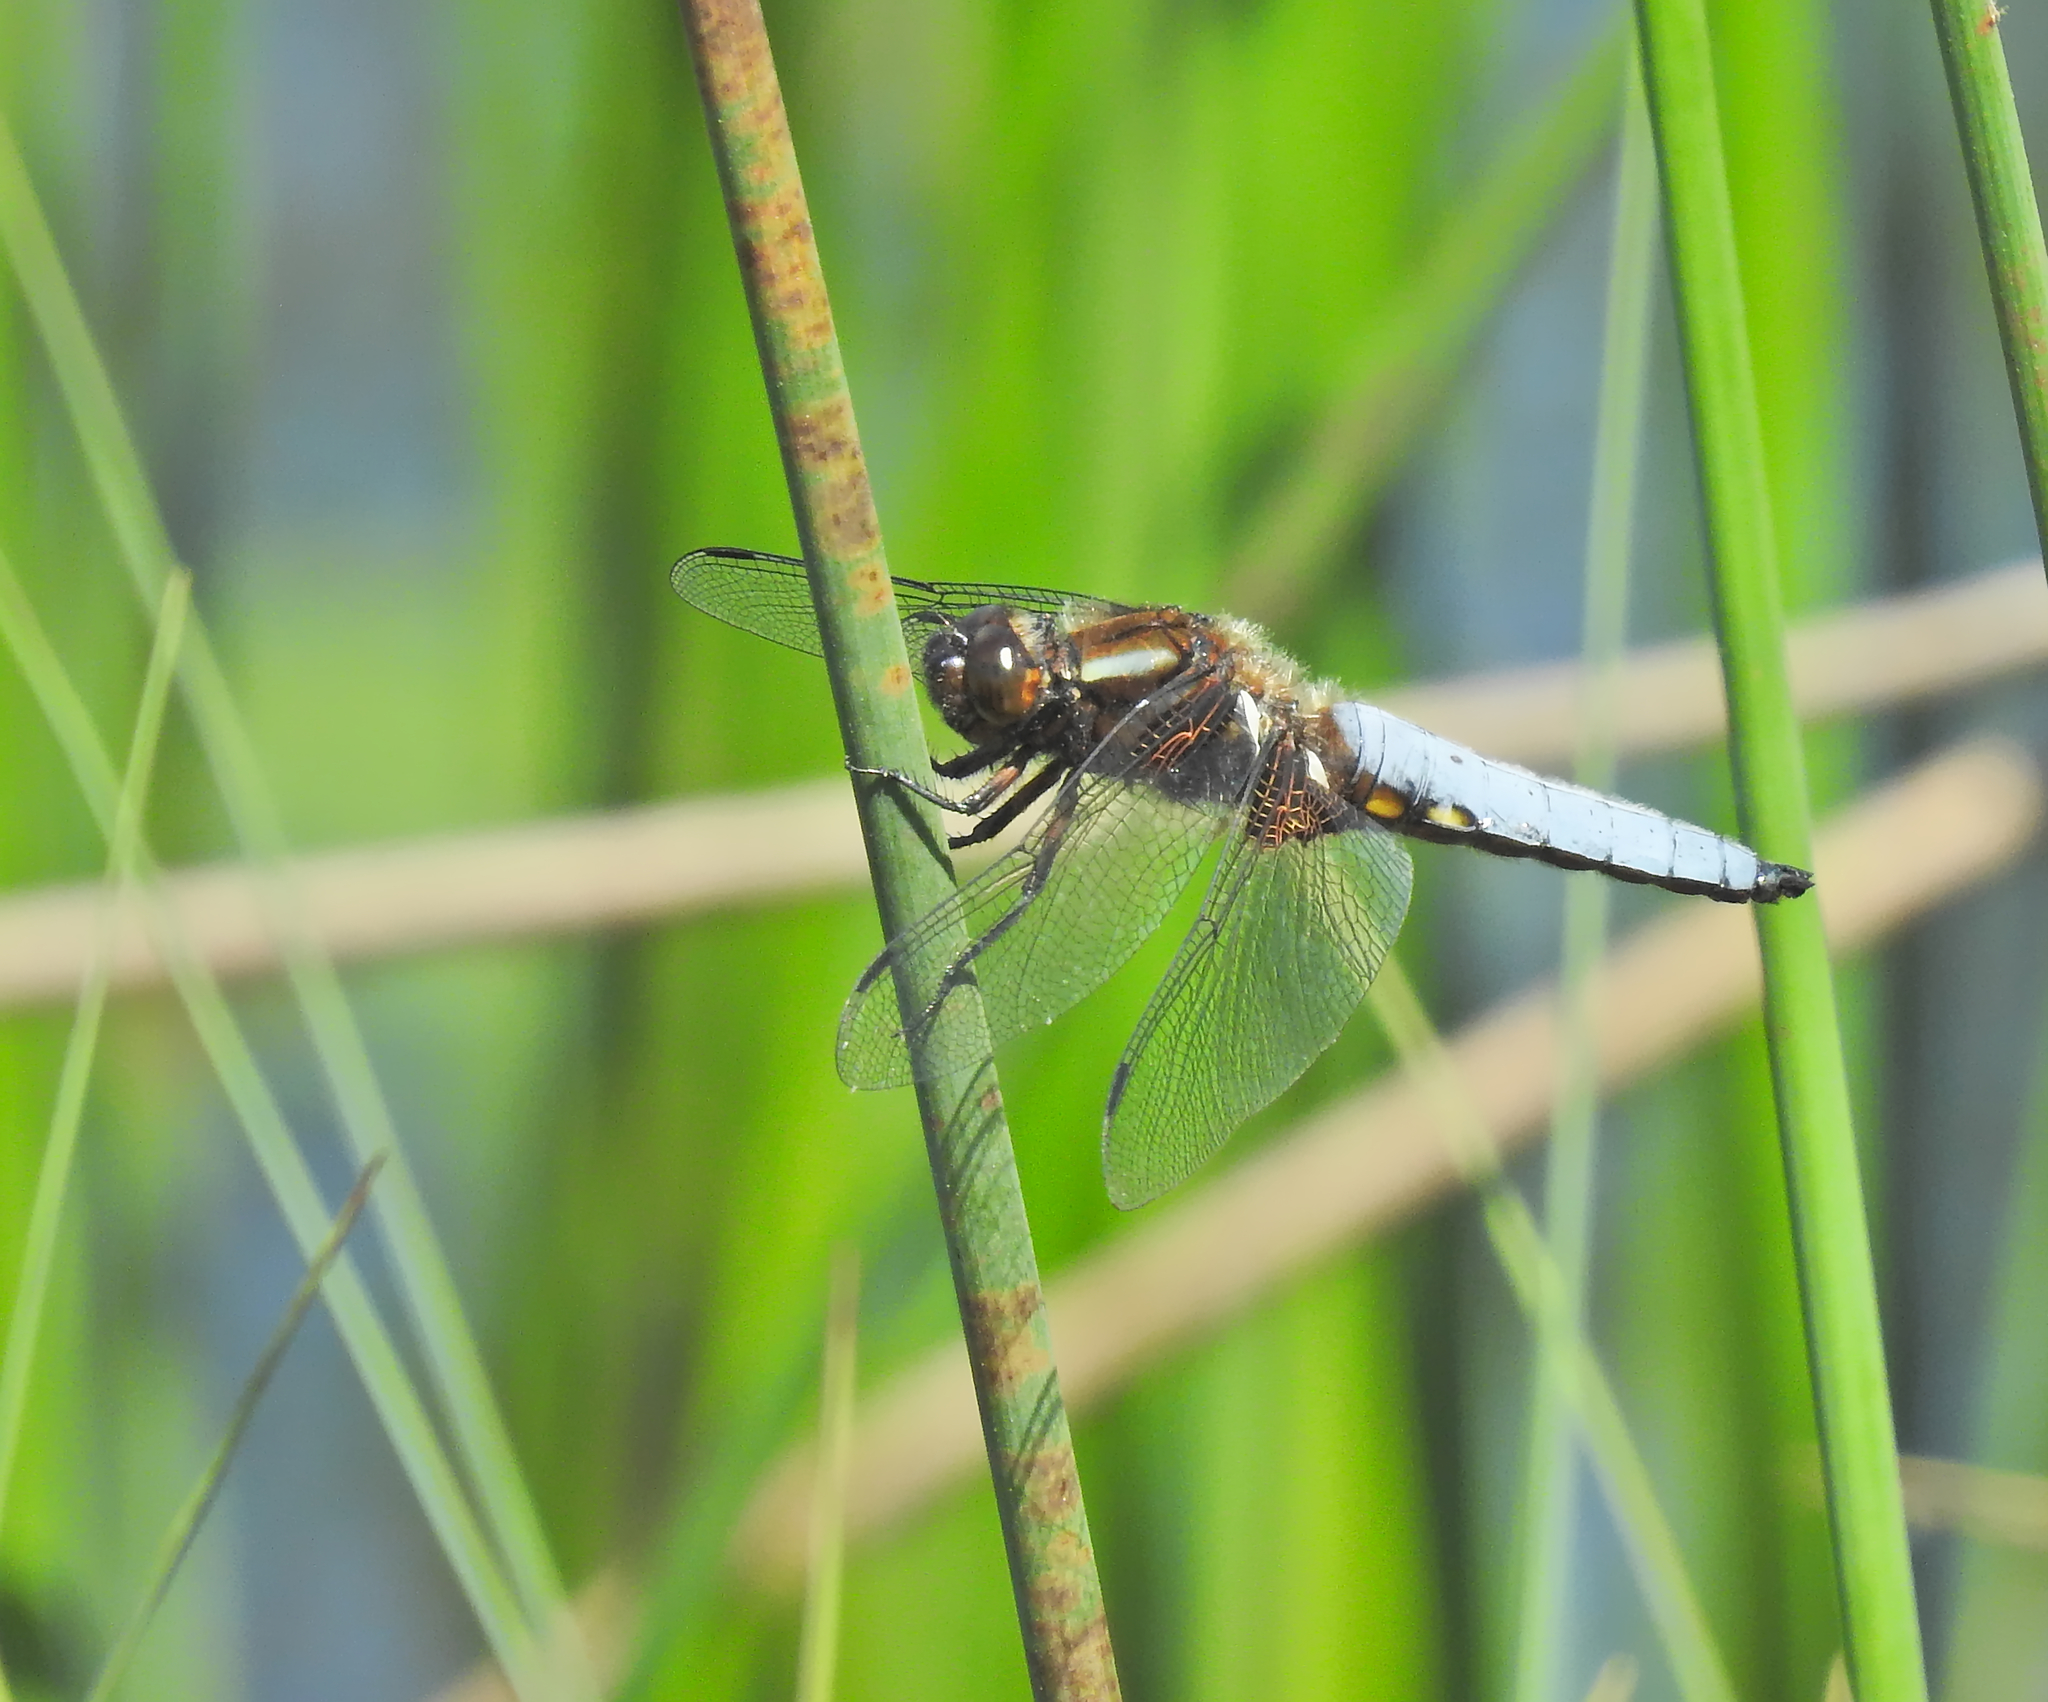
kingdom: Animalia
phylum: Arthropoda
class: Insecta
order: Odonata
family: Libellulidae
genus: Libellula
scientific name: Libellula depressa
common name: Broad-bodied chaser
